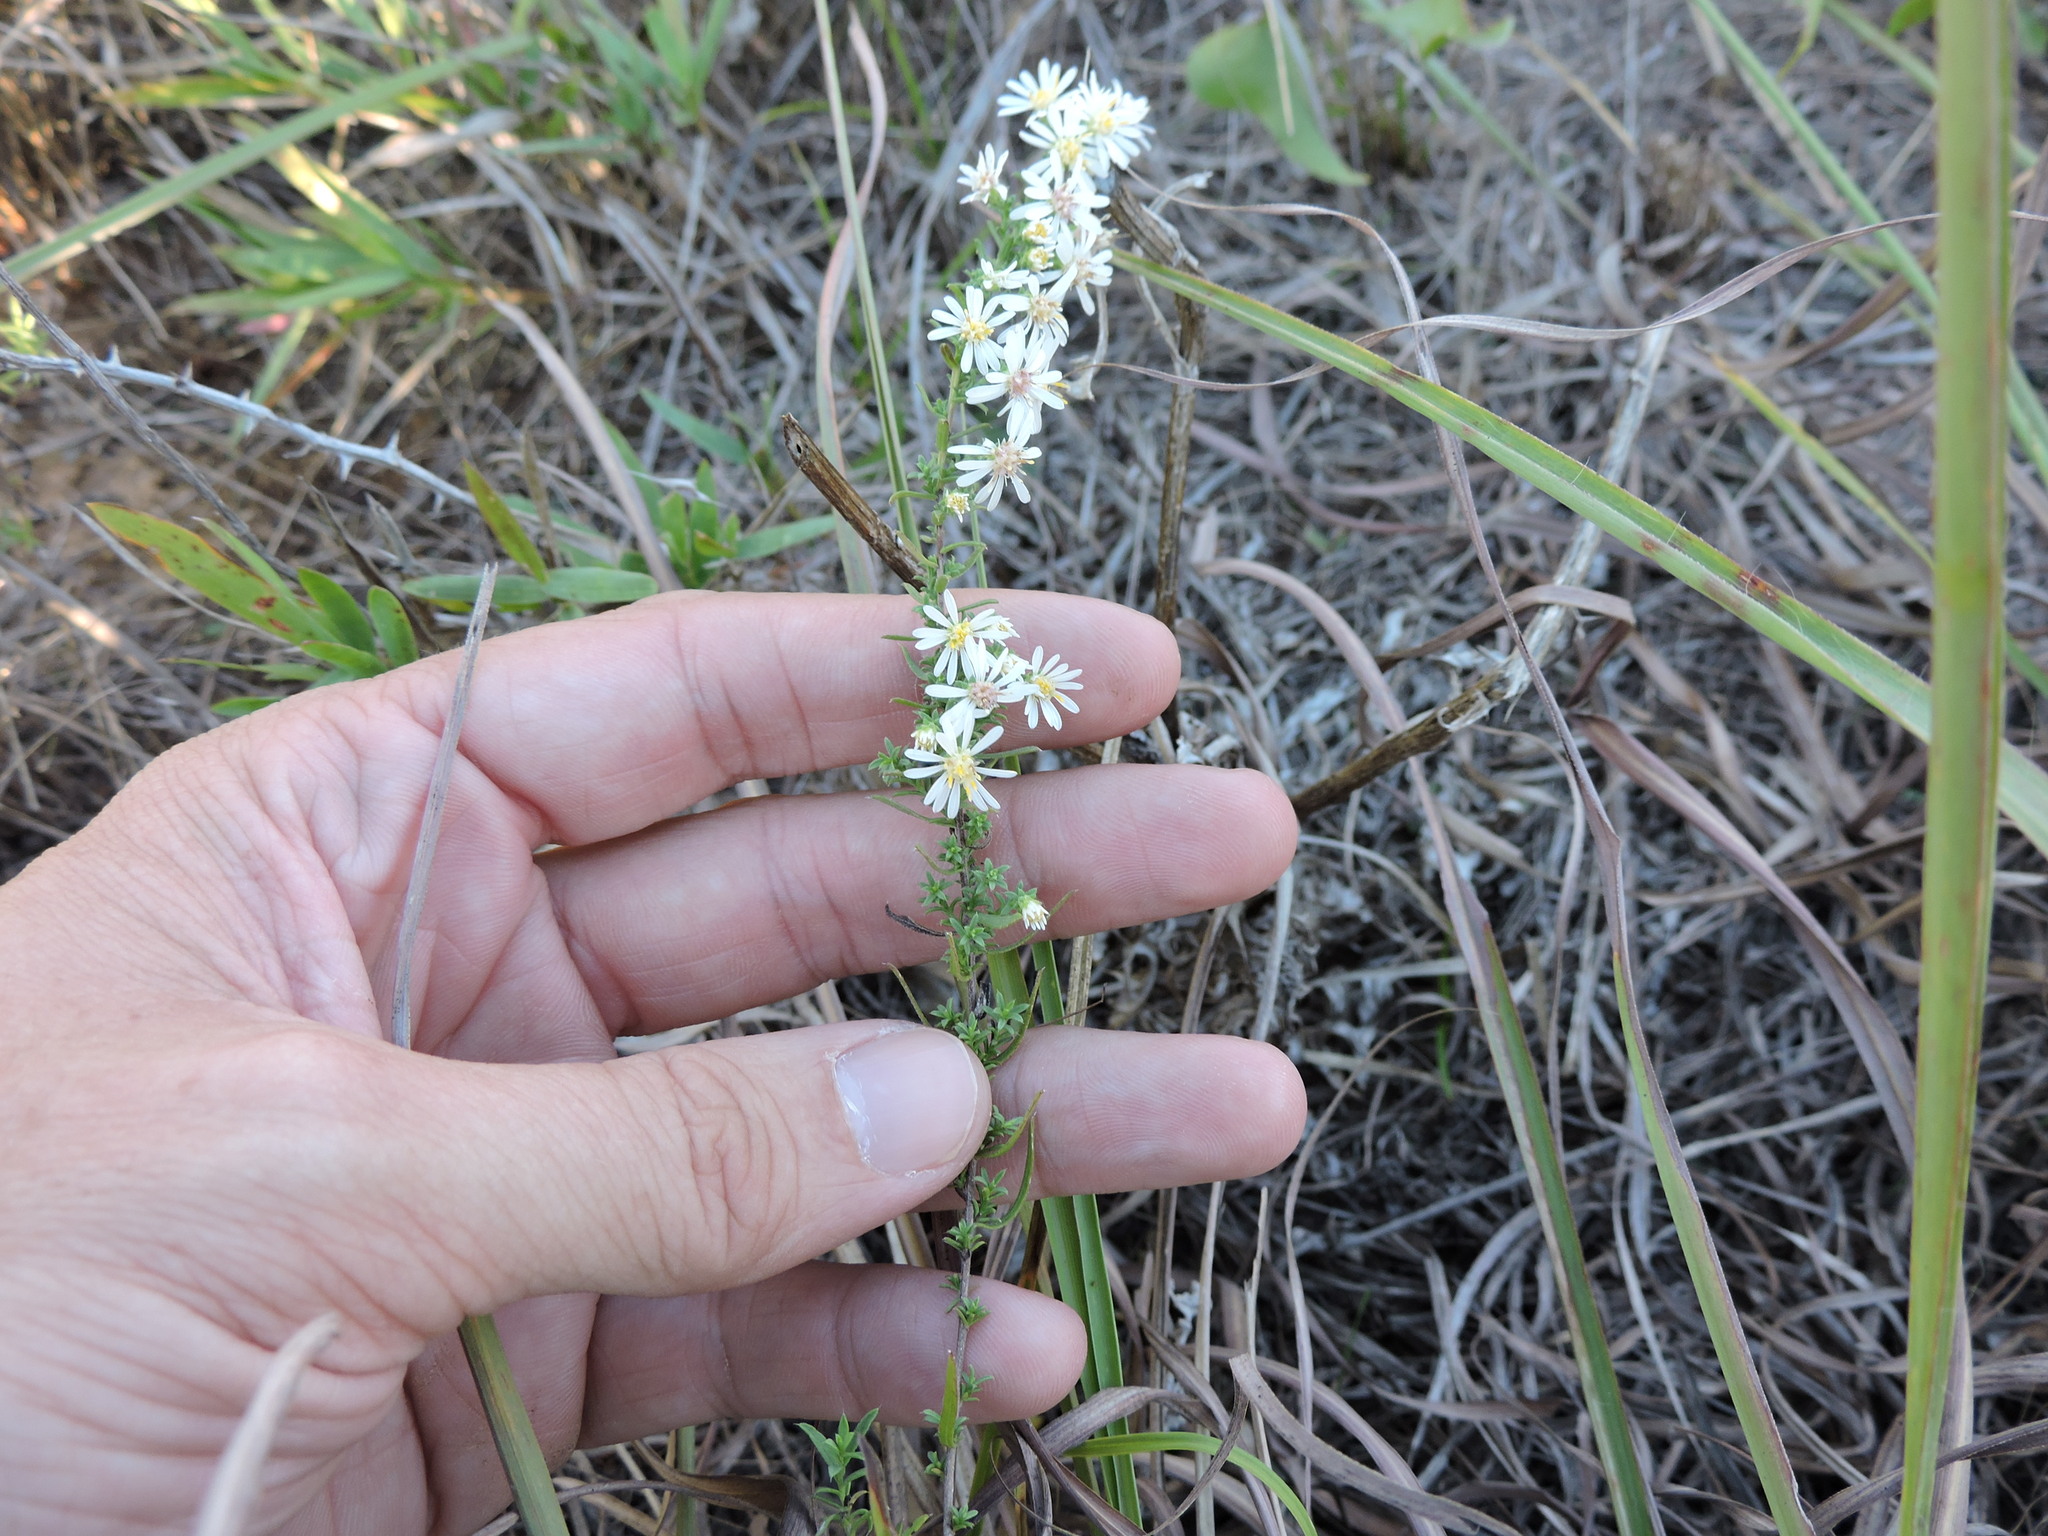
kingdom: Plantae
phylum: Tracheophyta
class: Magnoliopsida
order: Asterales
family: Asteraceae
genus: Symphyotrichum
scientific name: Symphyotrichum ericoides
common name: Heath aster
